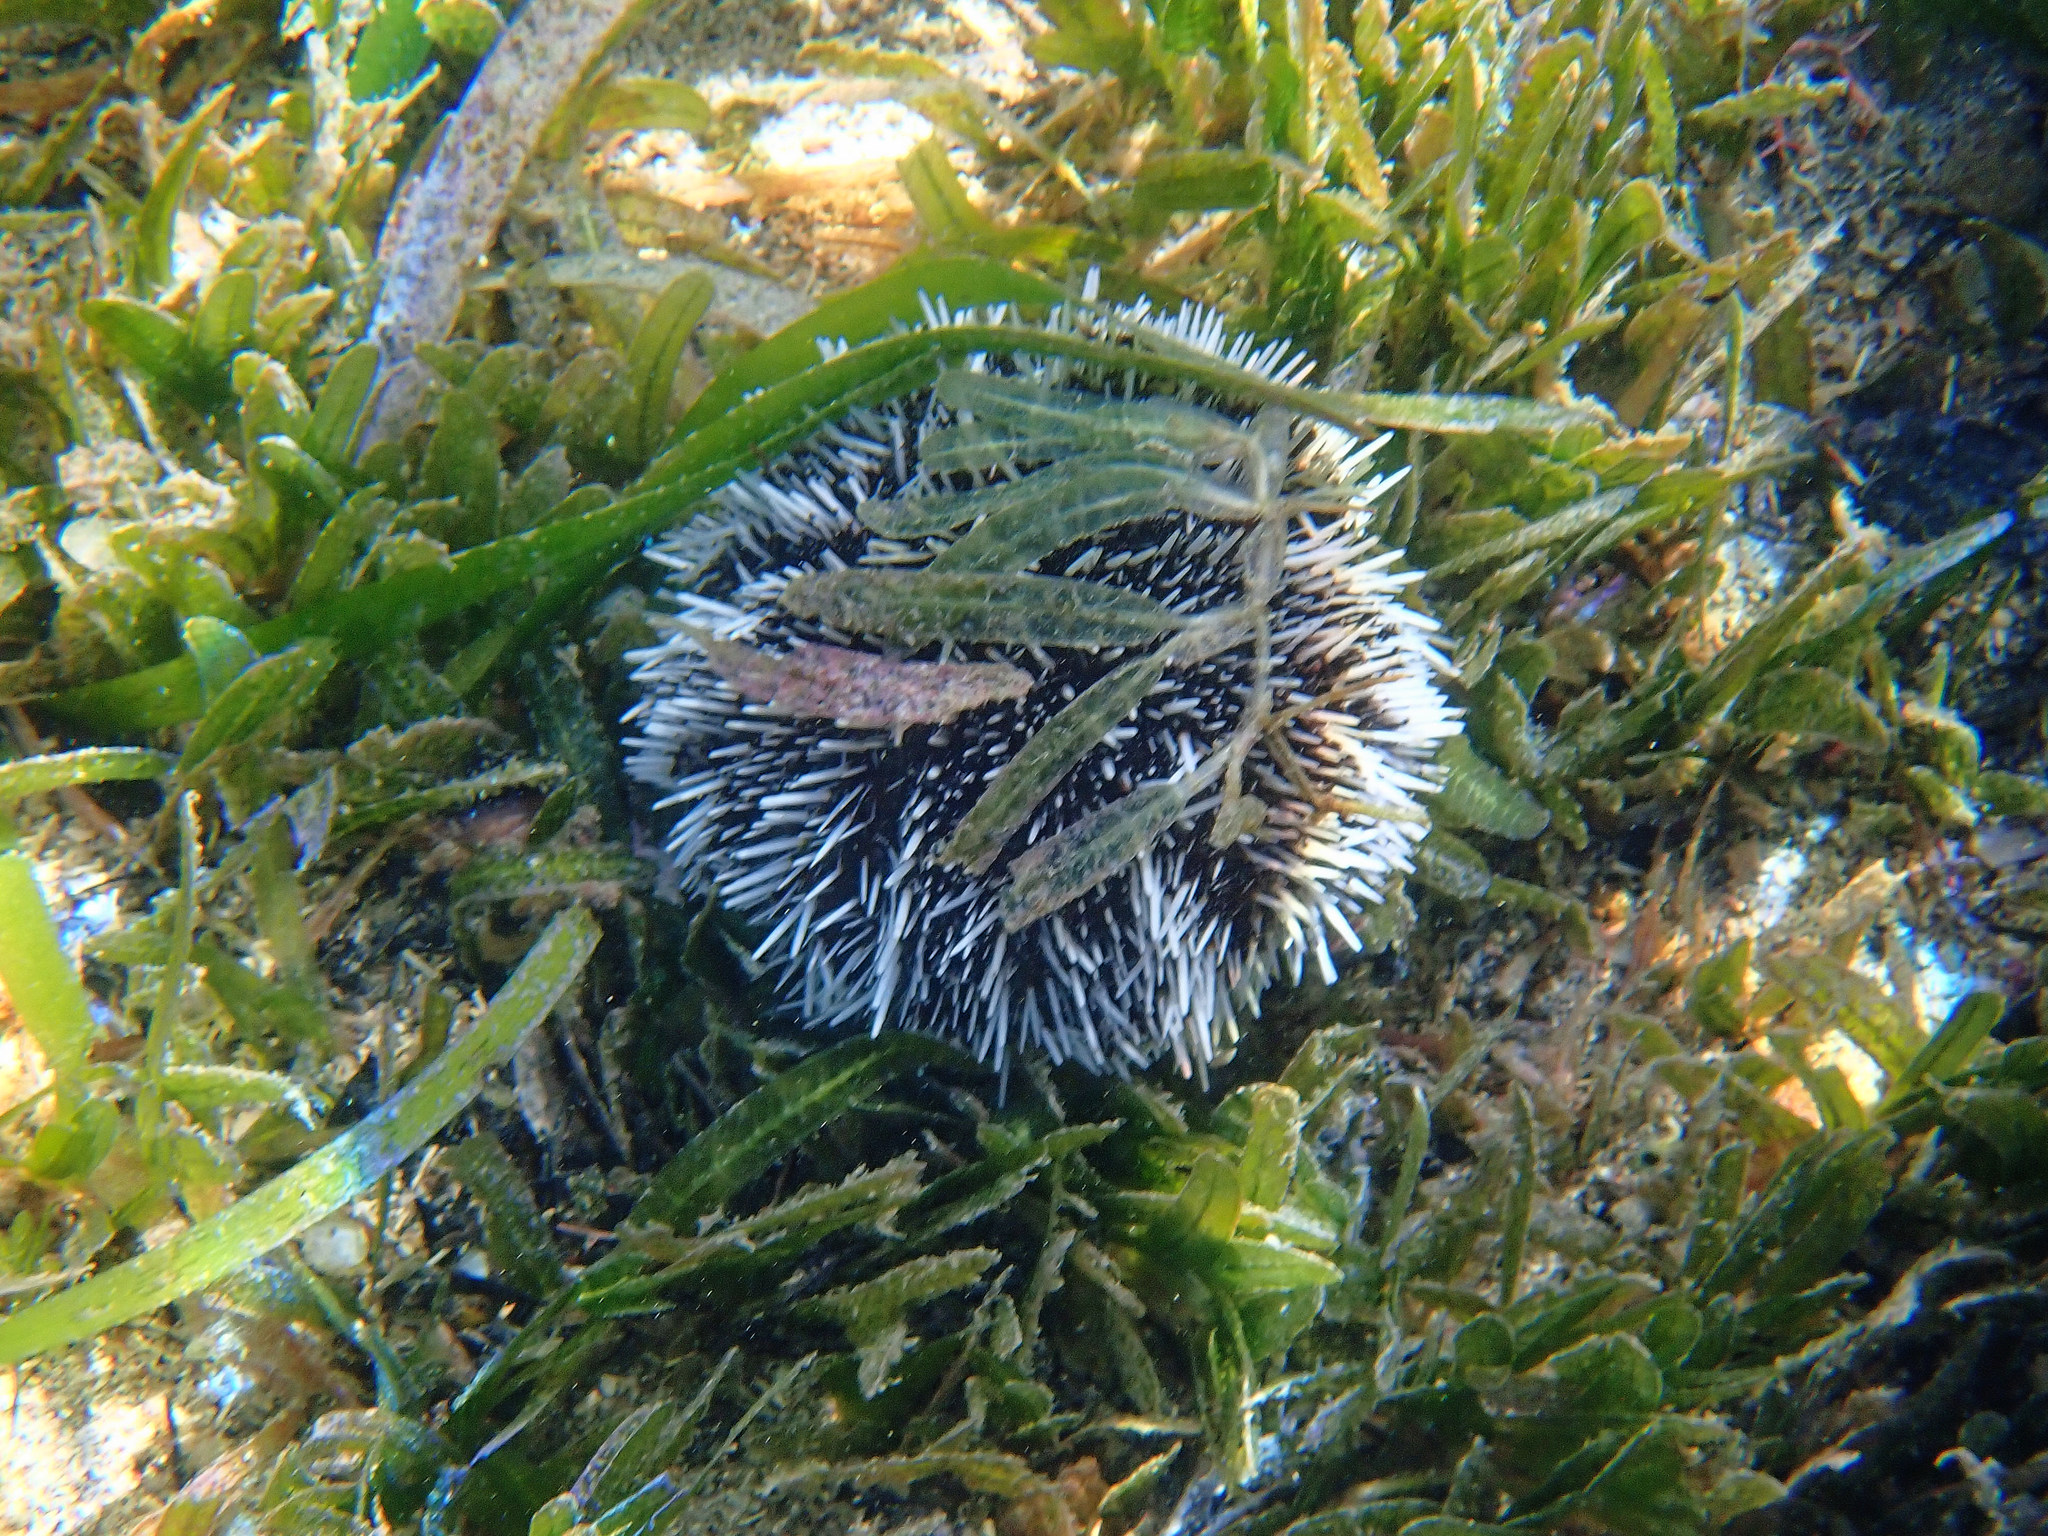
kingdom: Animalia
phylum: Echinodermata
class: Echinoidea
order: Camarodonta
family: Toxopneustidae
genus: Tripneustes
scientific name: Tripneustes ventricosus
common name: West indian sea egg
